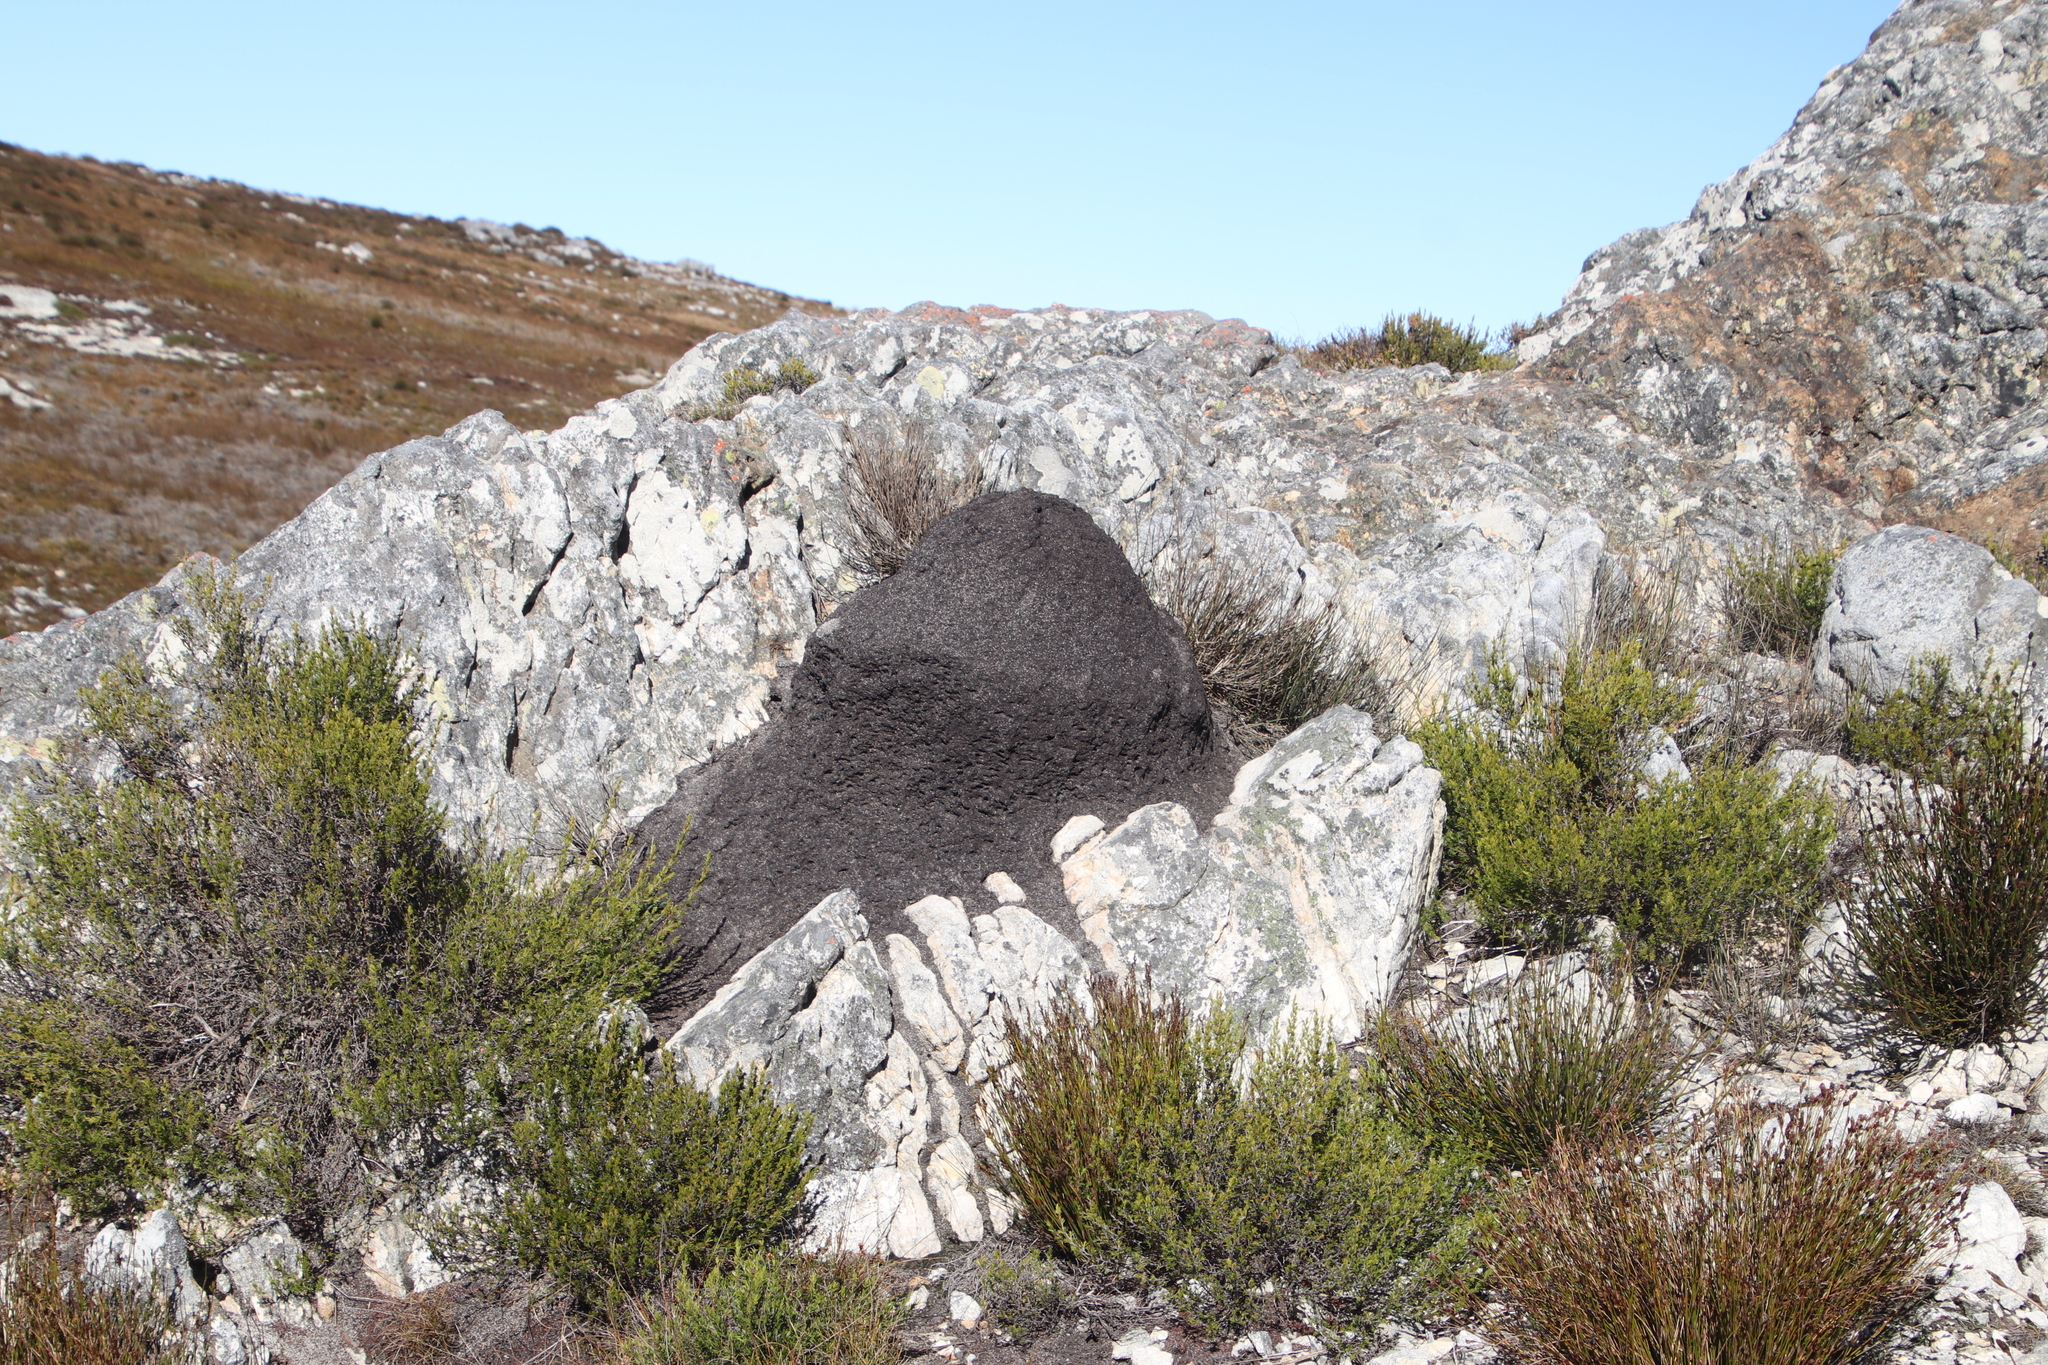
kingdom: Animalia
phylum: Arthropoda
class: Insecta
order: Blattodea
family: Termitidae
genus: Amitermes
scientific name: Amitermes hastatus
